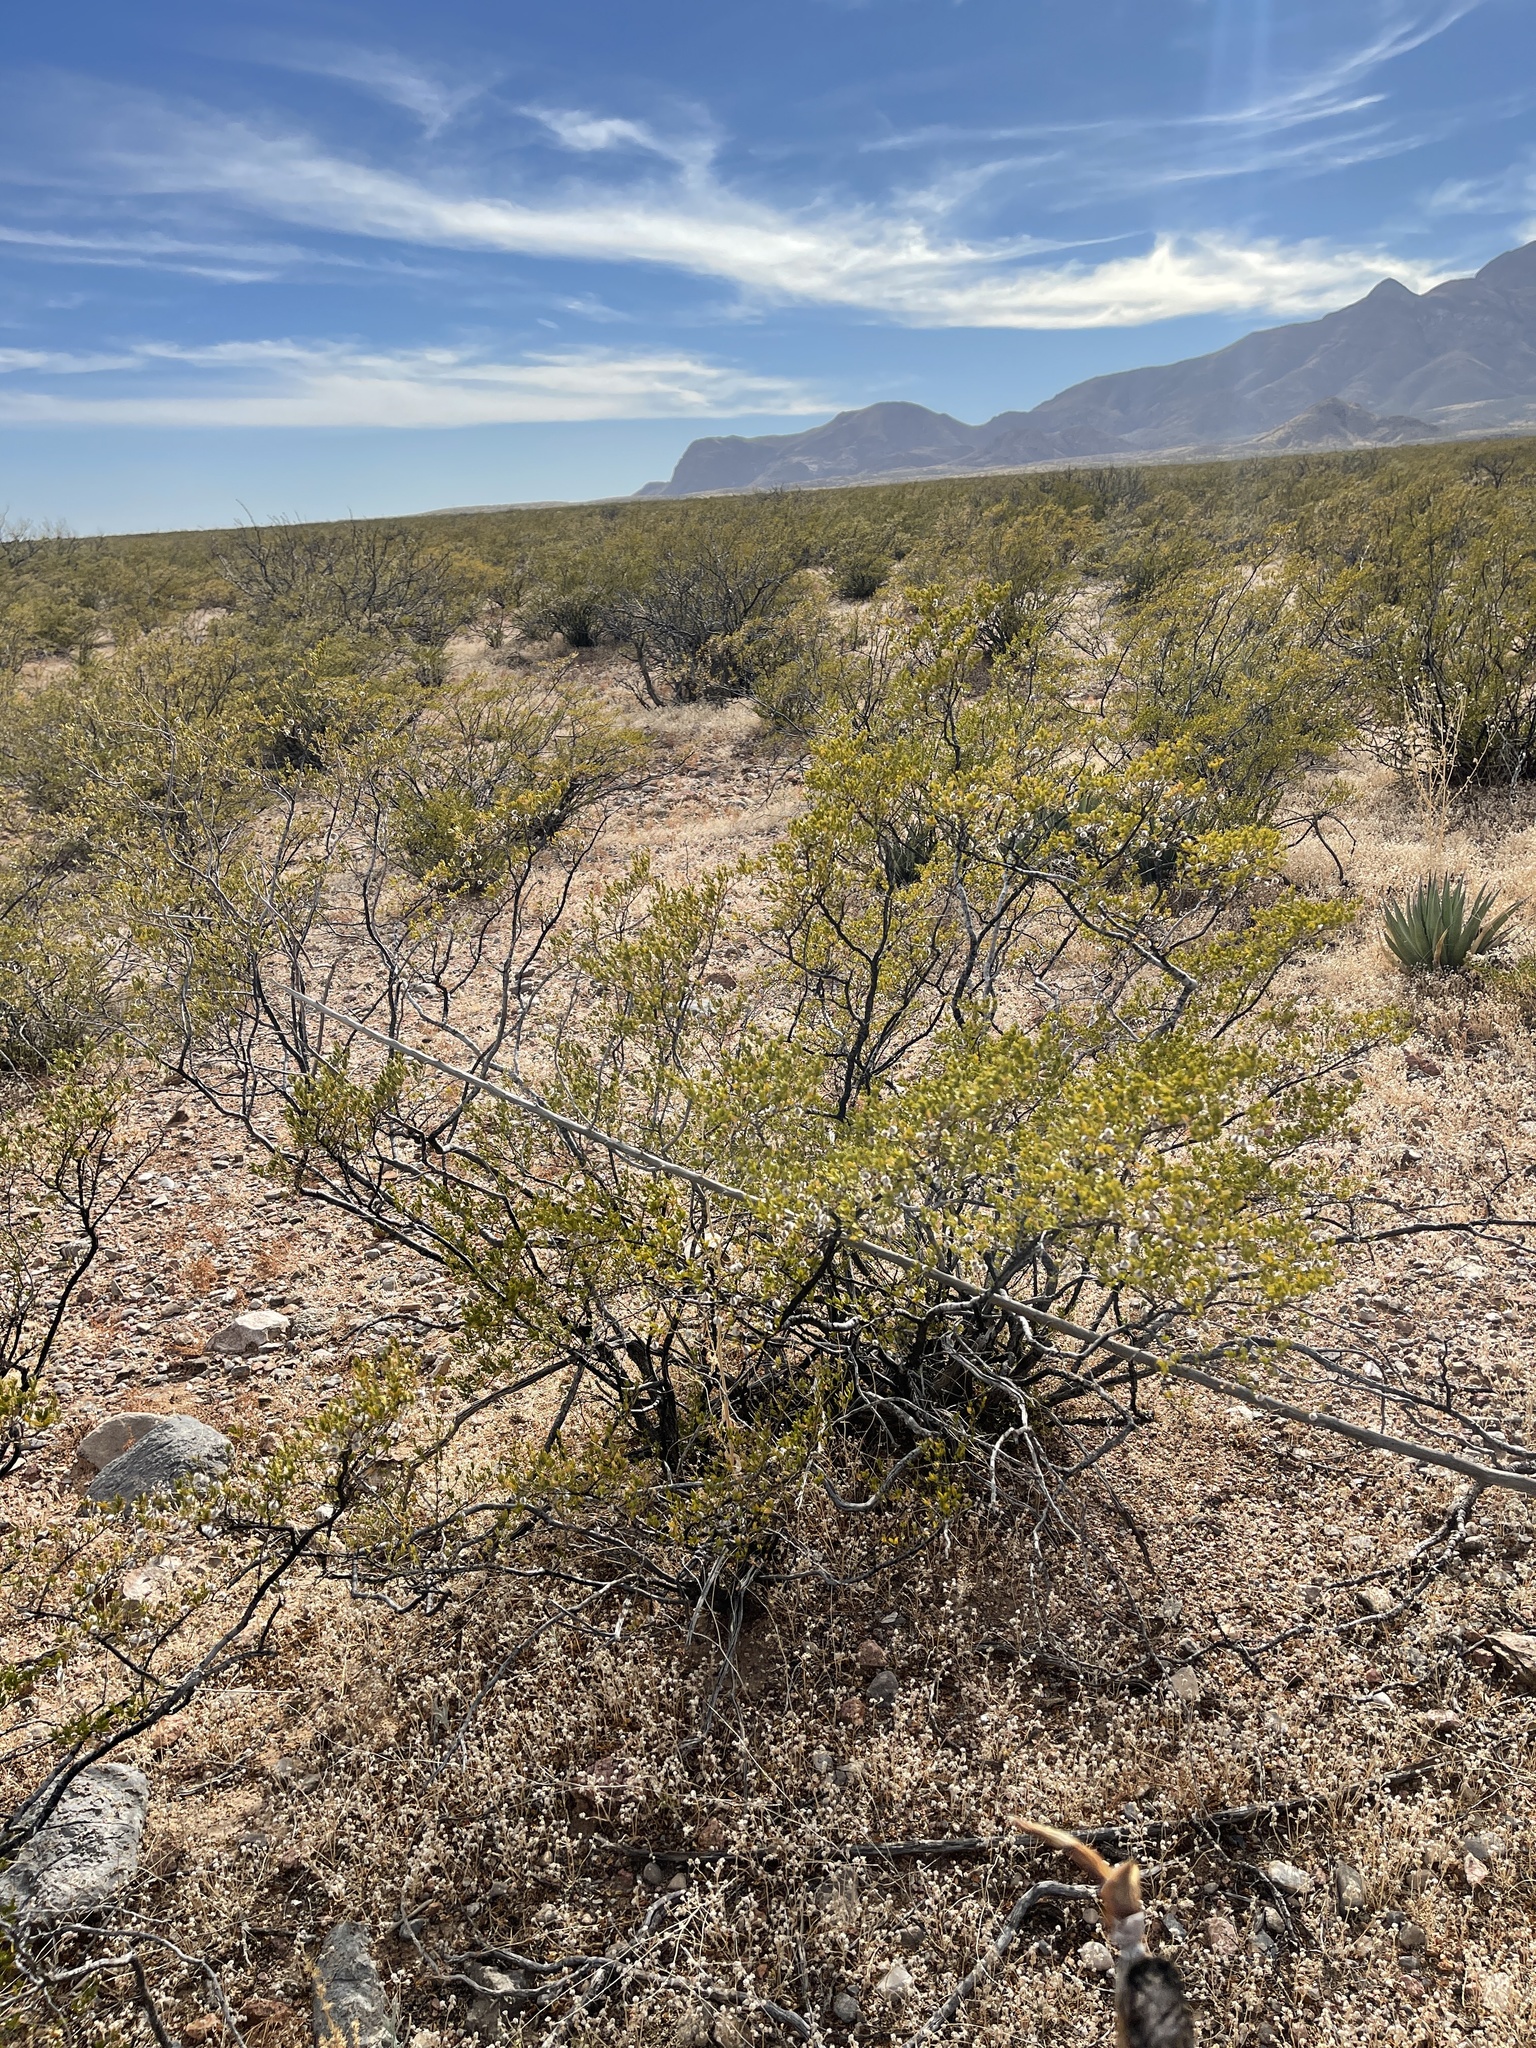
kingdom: Plantae
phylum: Tracheophyta
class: Magnoliopsida
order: Zygophyllales
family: Zygophyllaceae
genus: Larrea
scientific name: Larrea tridentata
